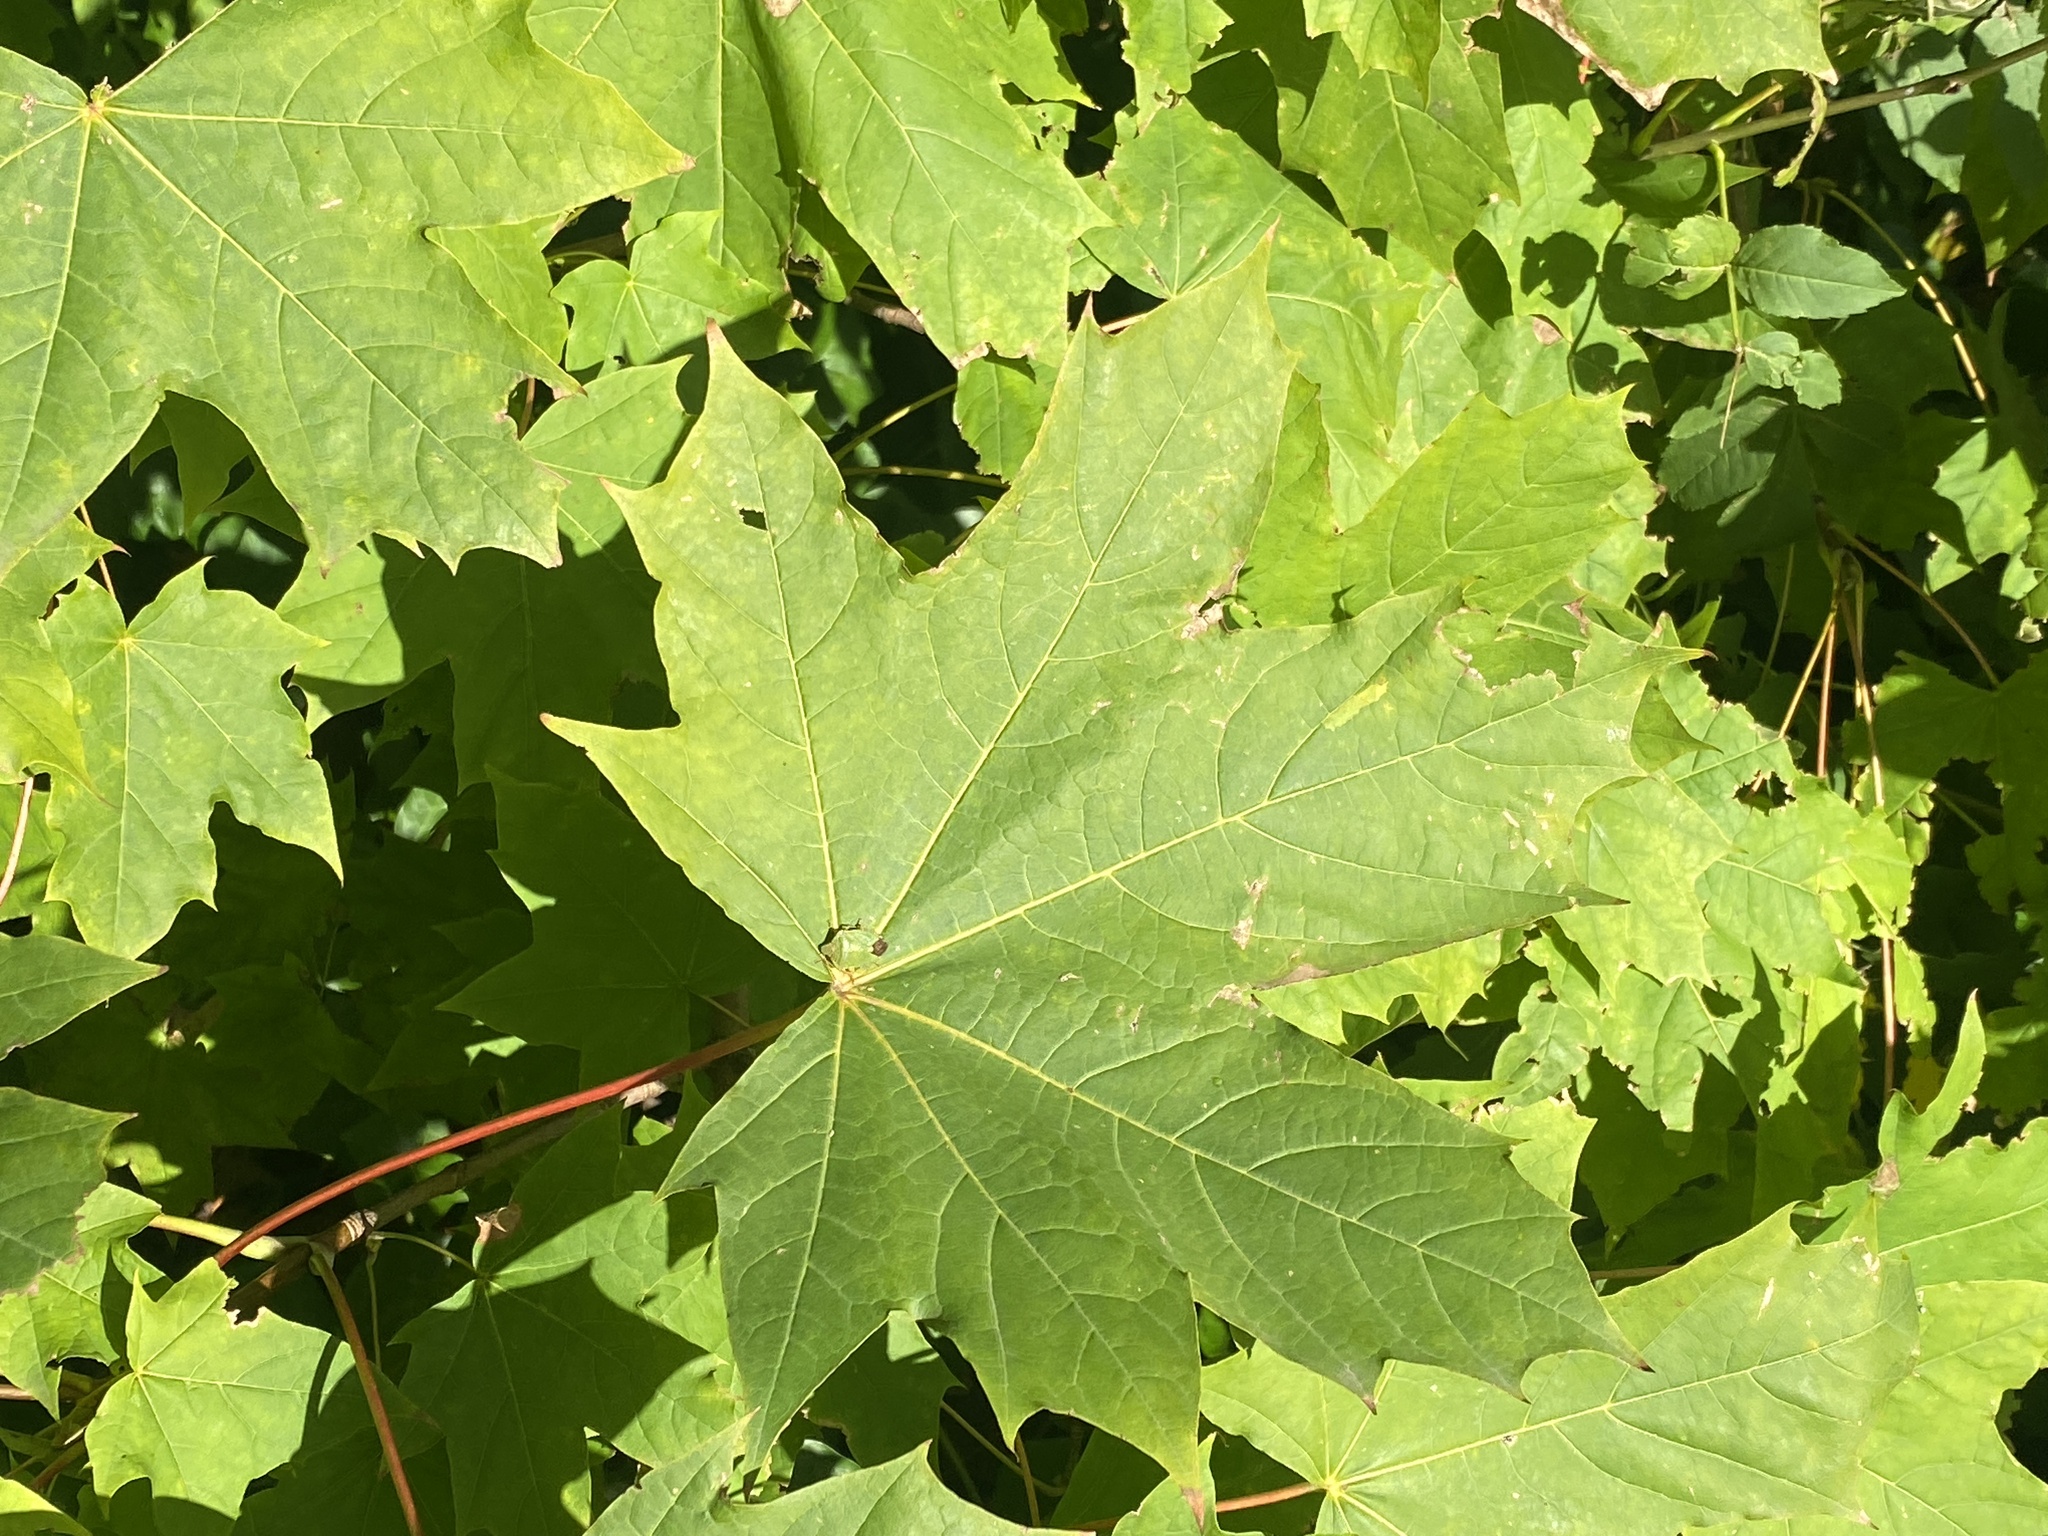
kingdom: Plantae
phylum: Tracheophyta
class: Magnoliopsida
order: Sapindales
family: Sapindaceae
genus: Acer
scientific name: Acer platanoides
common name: Norway maple
